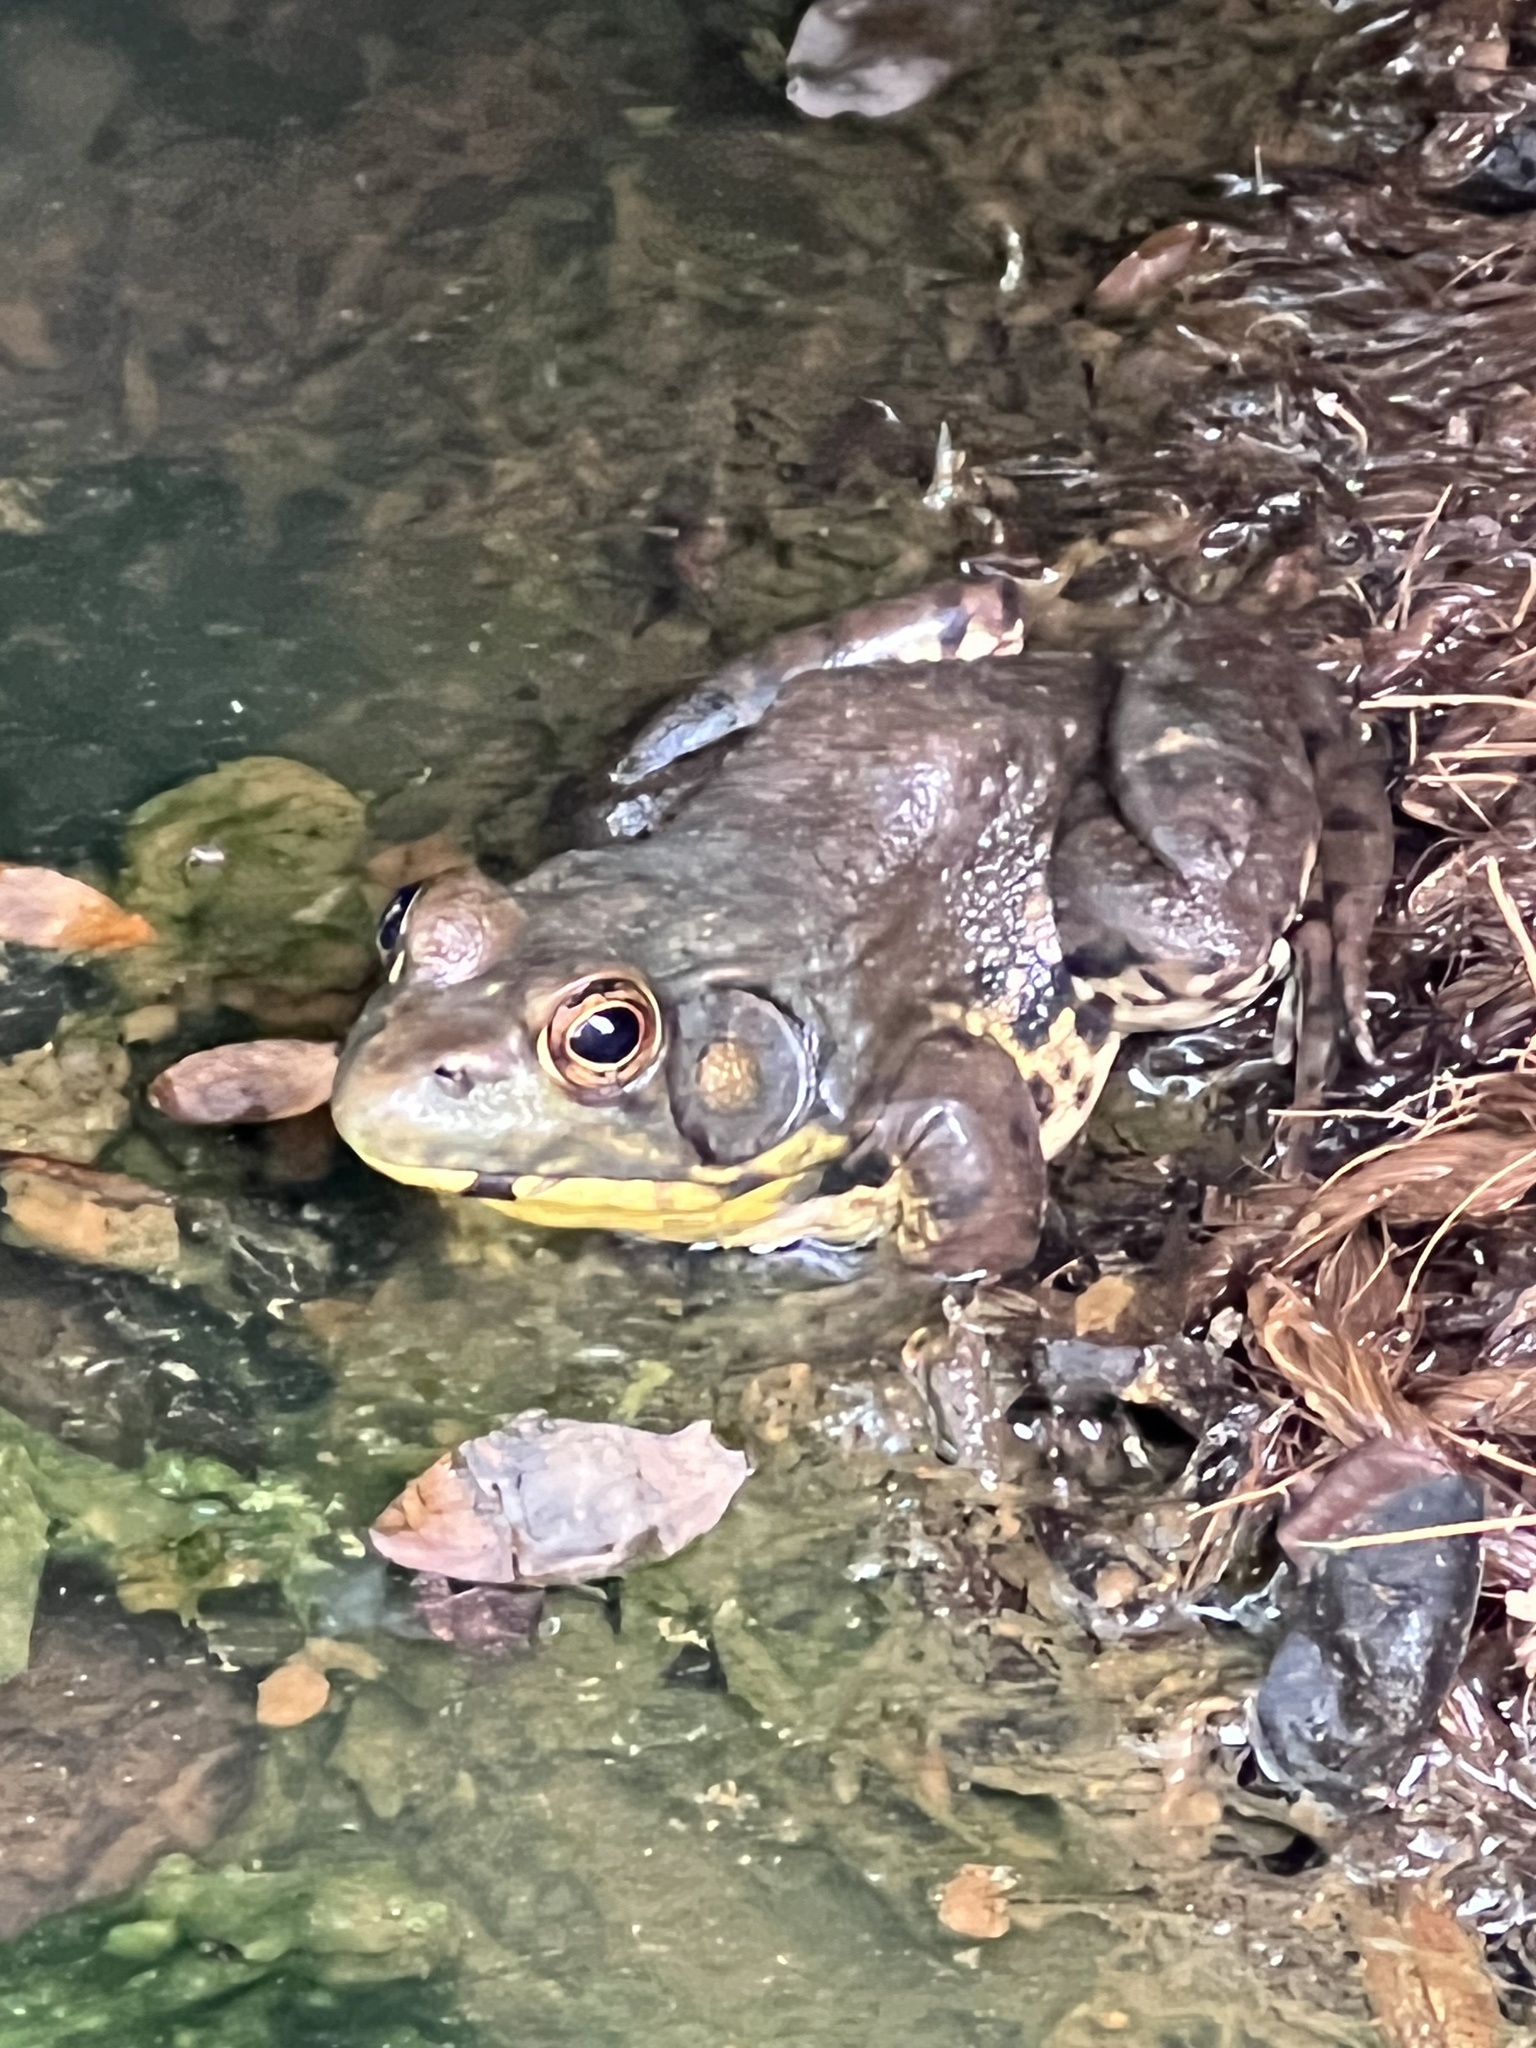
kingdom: Animalia
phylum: Chordata
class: Amphibia
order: Anura
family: Ranidae
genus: Lithobates
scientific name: Lithobates clamitans
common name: Green frog
